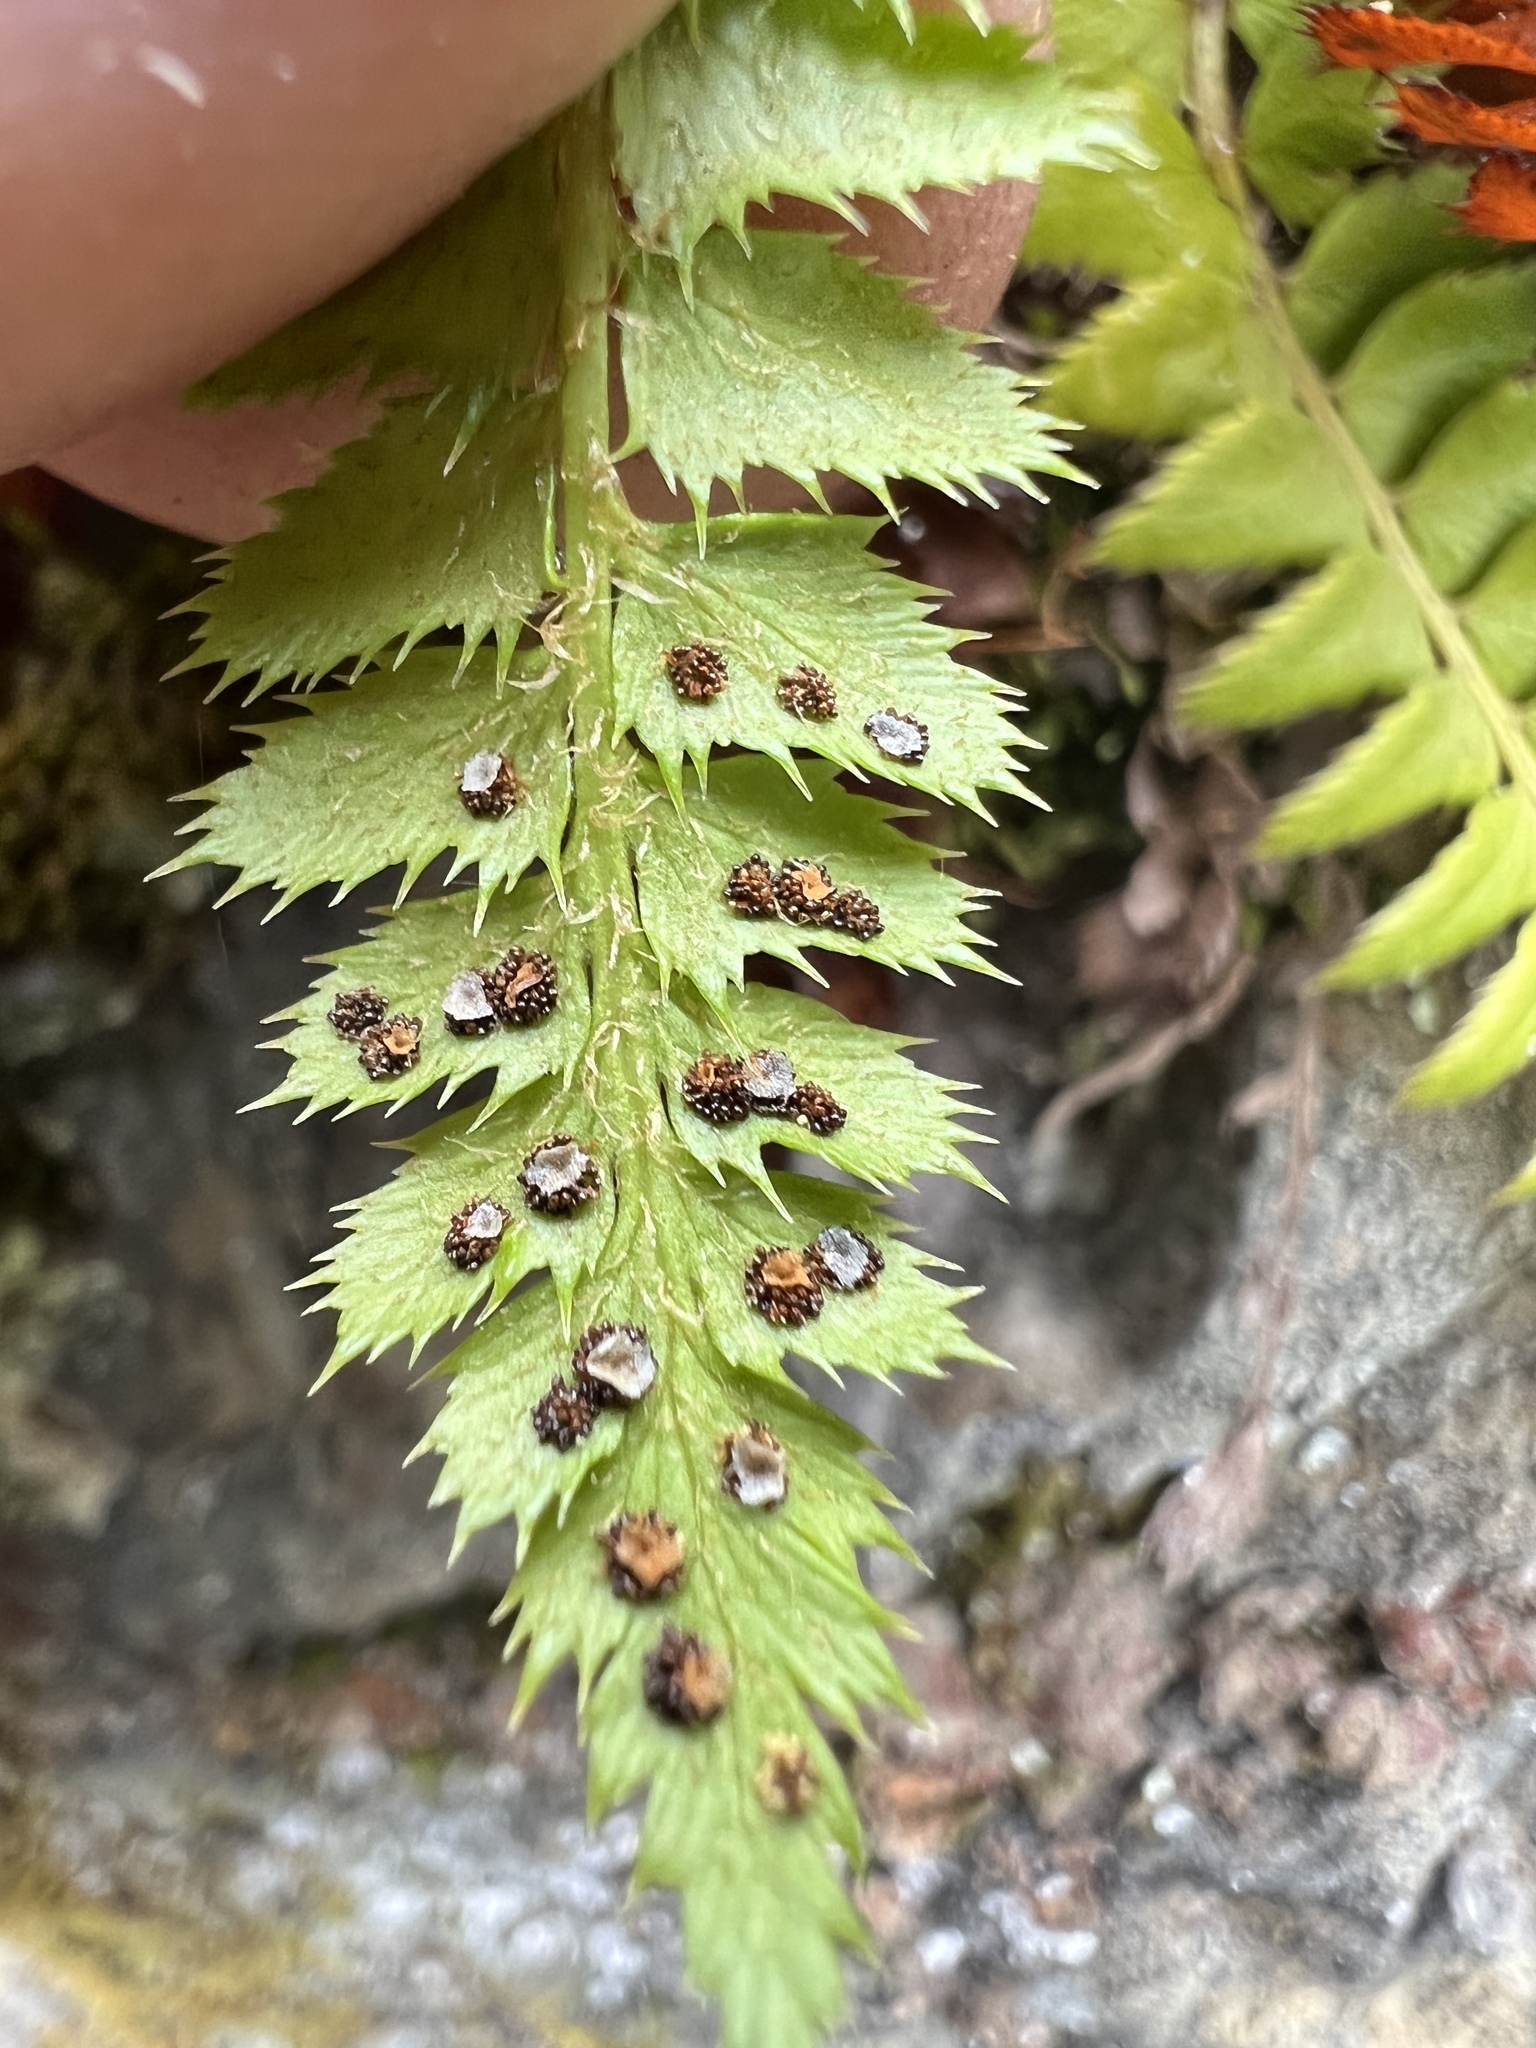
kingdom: Plantae
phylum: Tracheophyta
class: Polypodiopsida
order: Polypodiales
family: Dryopteridaceae
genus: Polystichum
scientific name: Polystichum lonchitis
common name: Holly fern
